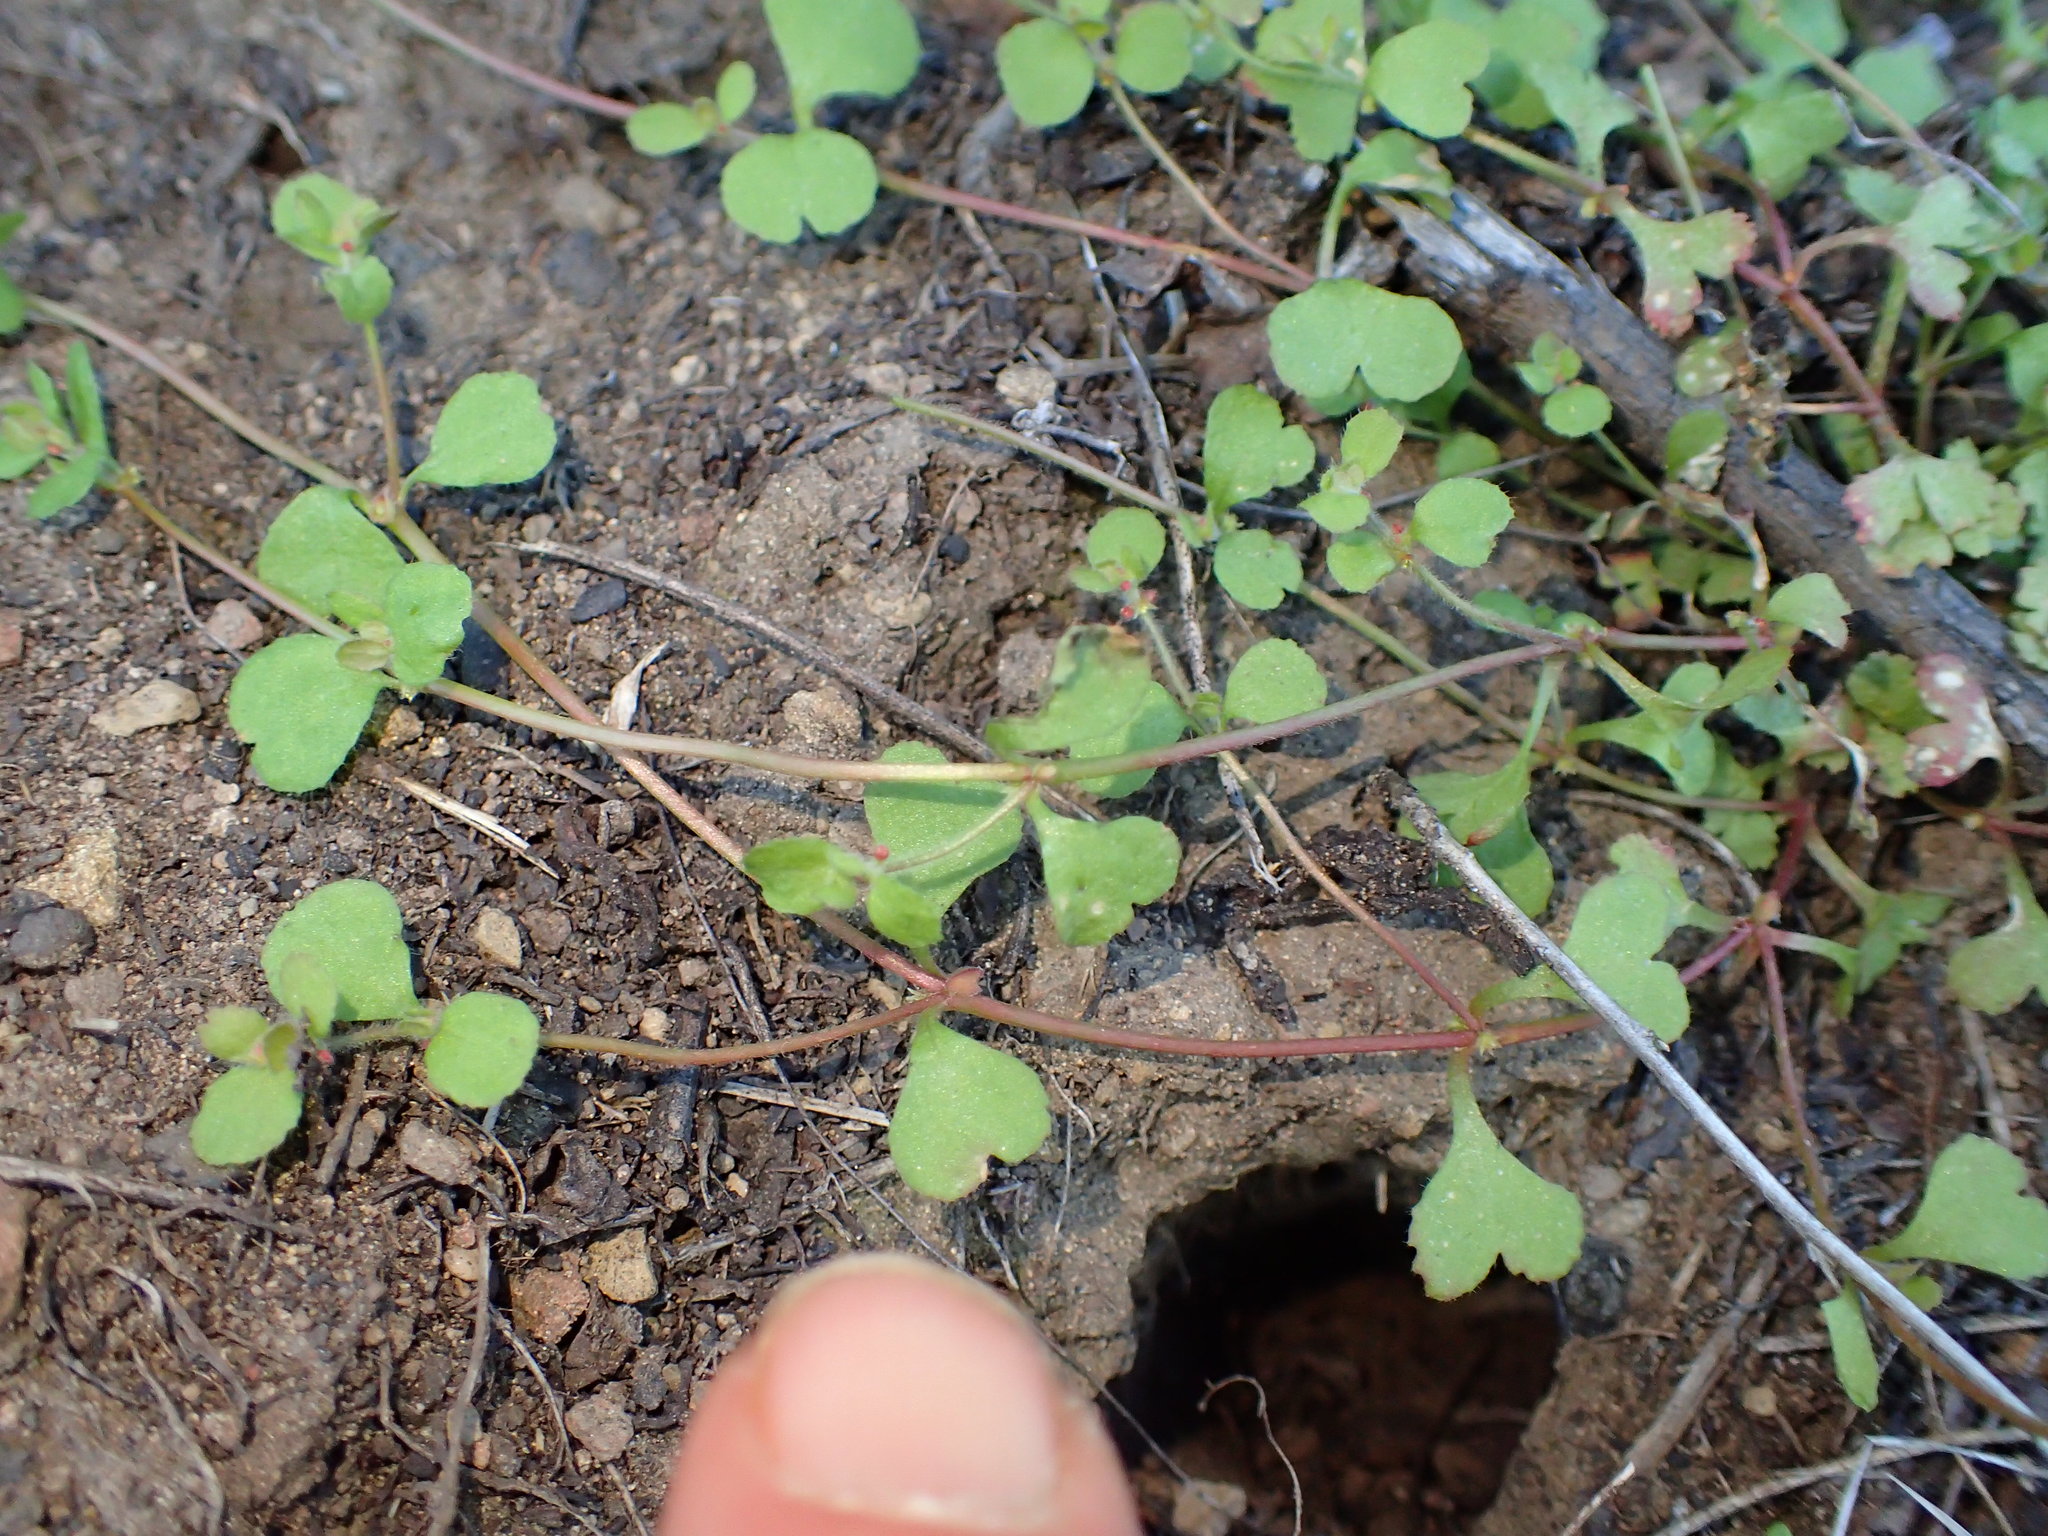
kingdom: Plantae
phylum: Tracheophyta
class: Magnoliopsida
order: Caryophyllales
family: Polygonaceae
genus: Pterostegia
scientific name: Pterostegia drymarioides
